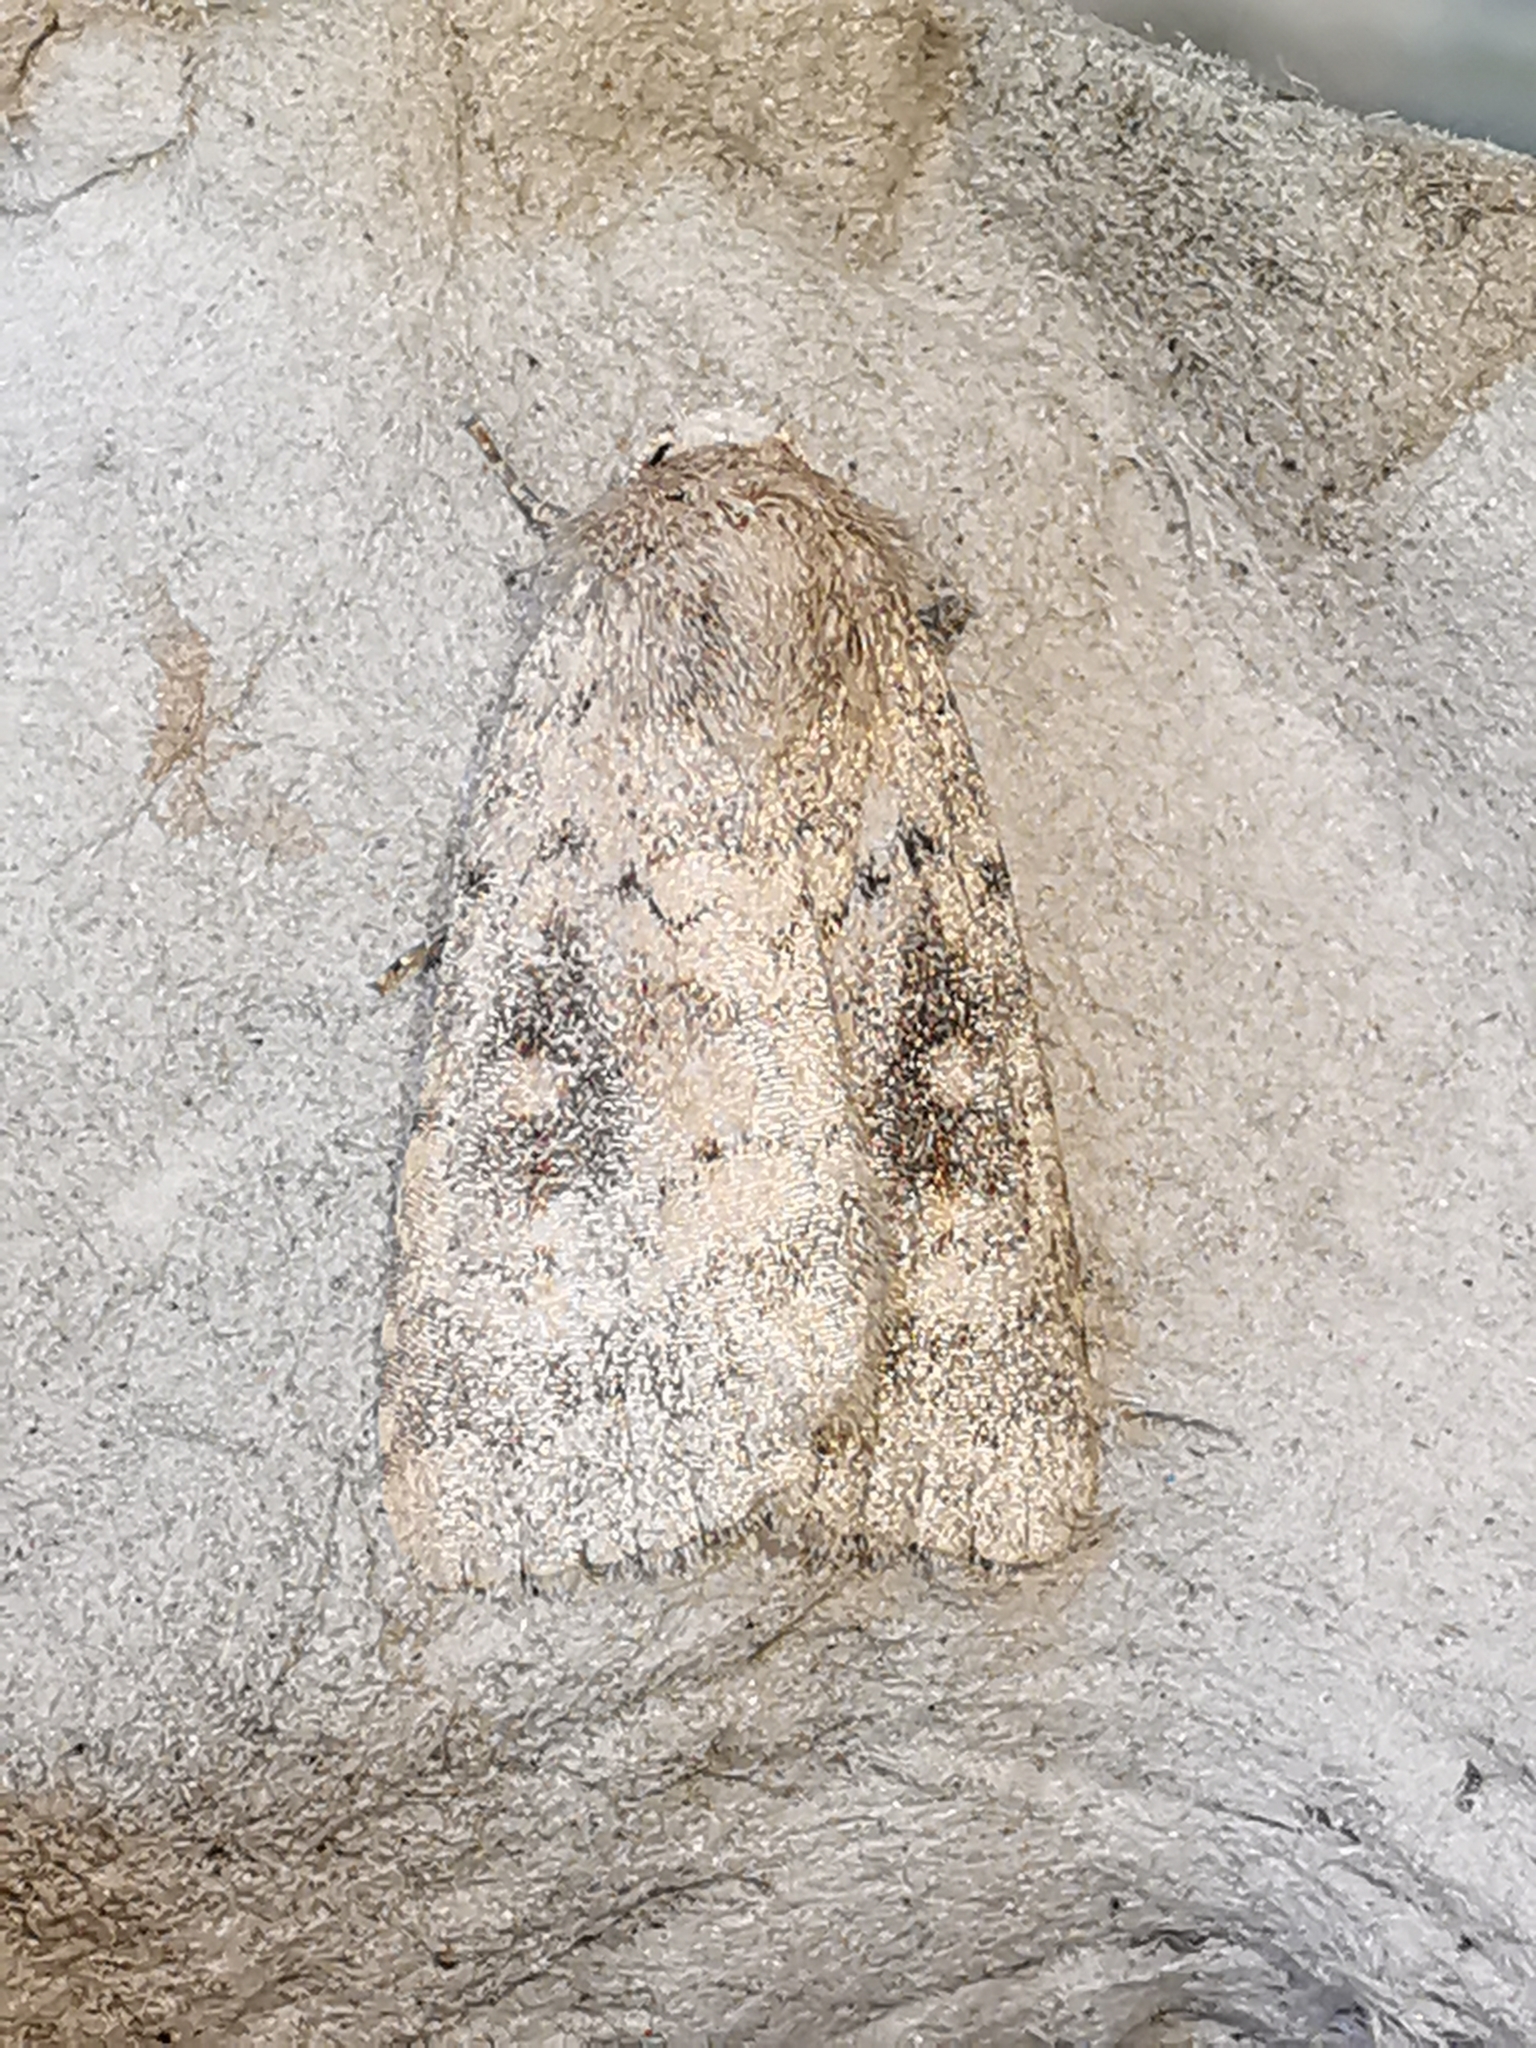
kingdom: Animalia
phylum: Arthropoda
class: Insecta
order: Lepidoptera
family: Noctuidae
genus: Caradrina
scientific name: Caradrina morpheus
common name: Mottled rustic
